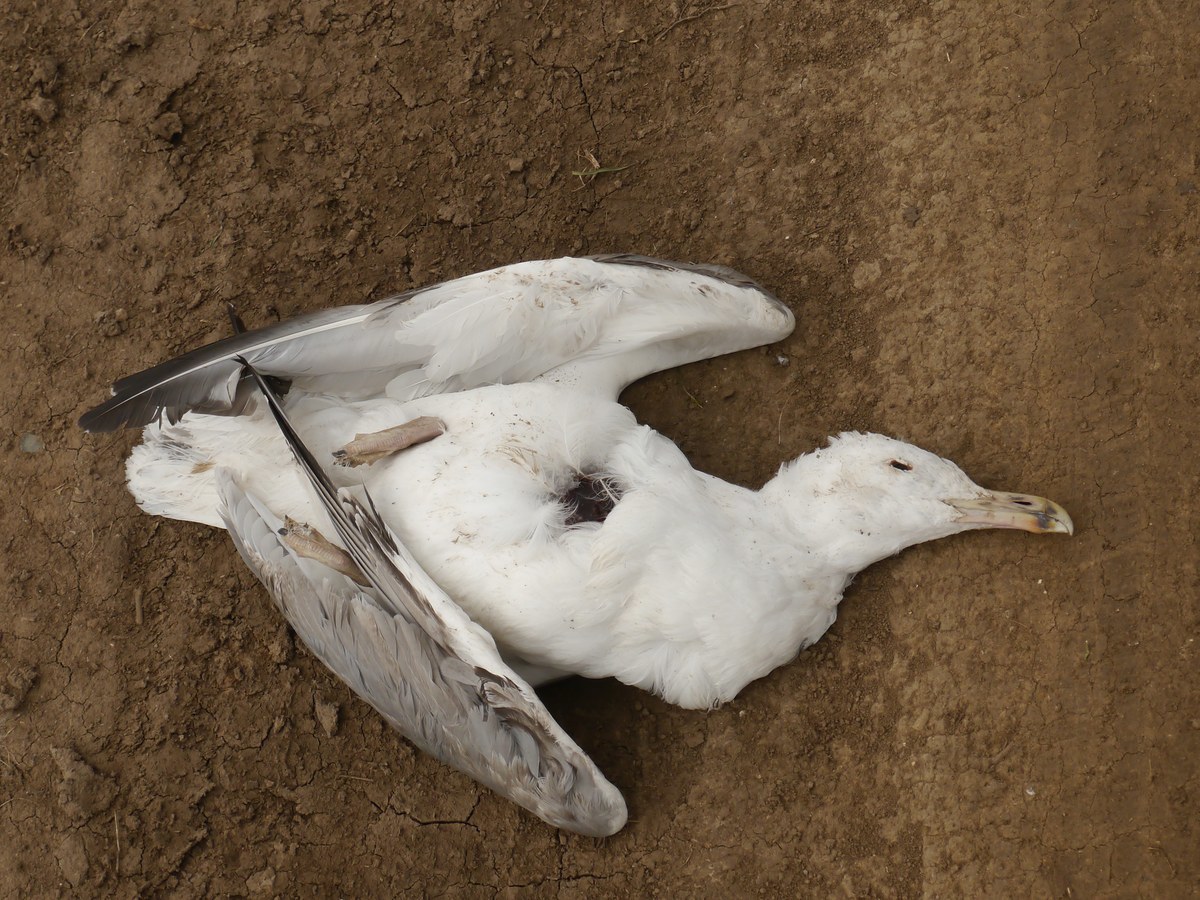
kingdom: Animalia
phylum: Chordata
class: Aves
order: Charadriiformes
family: Laridae
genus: Larus
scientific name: Larus cachinnans
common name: Caspian gull
